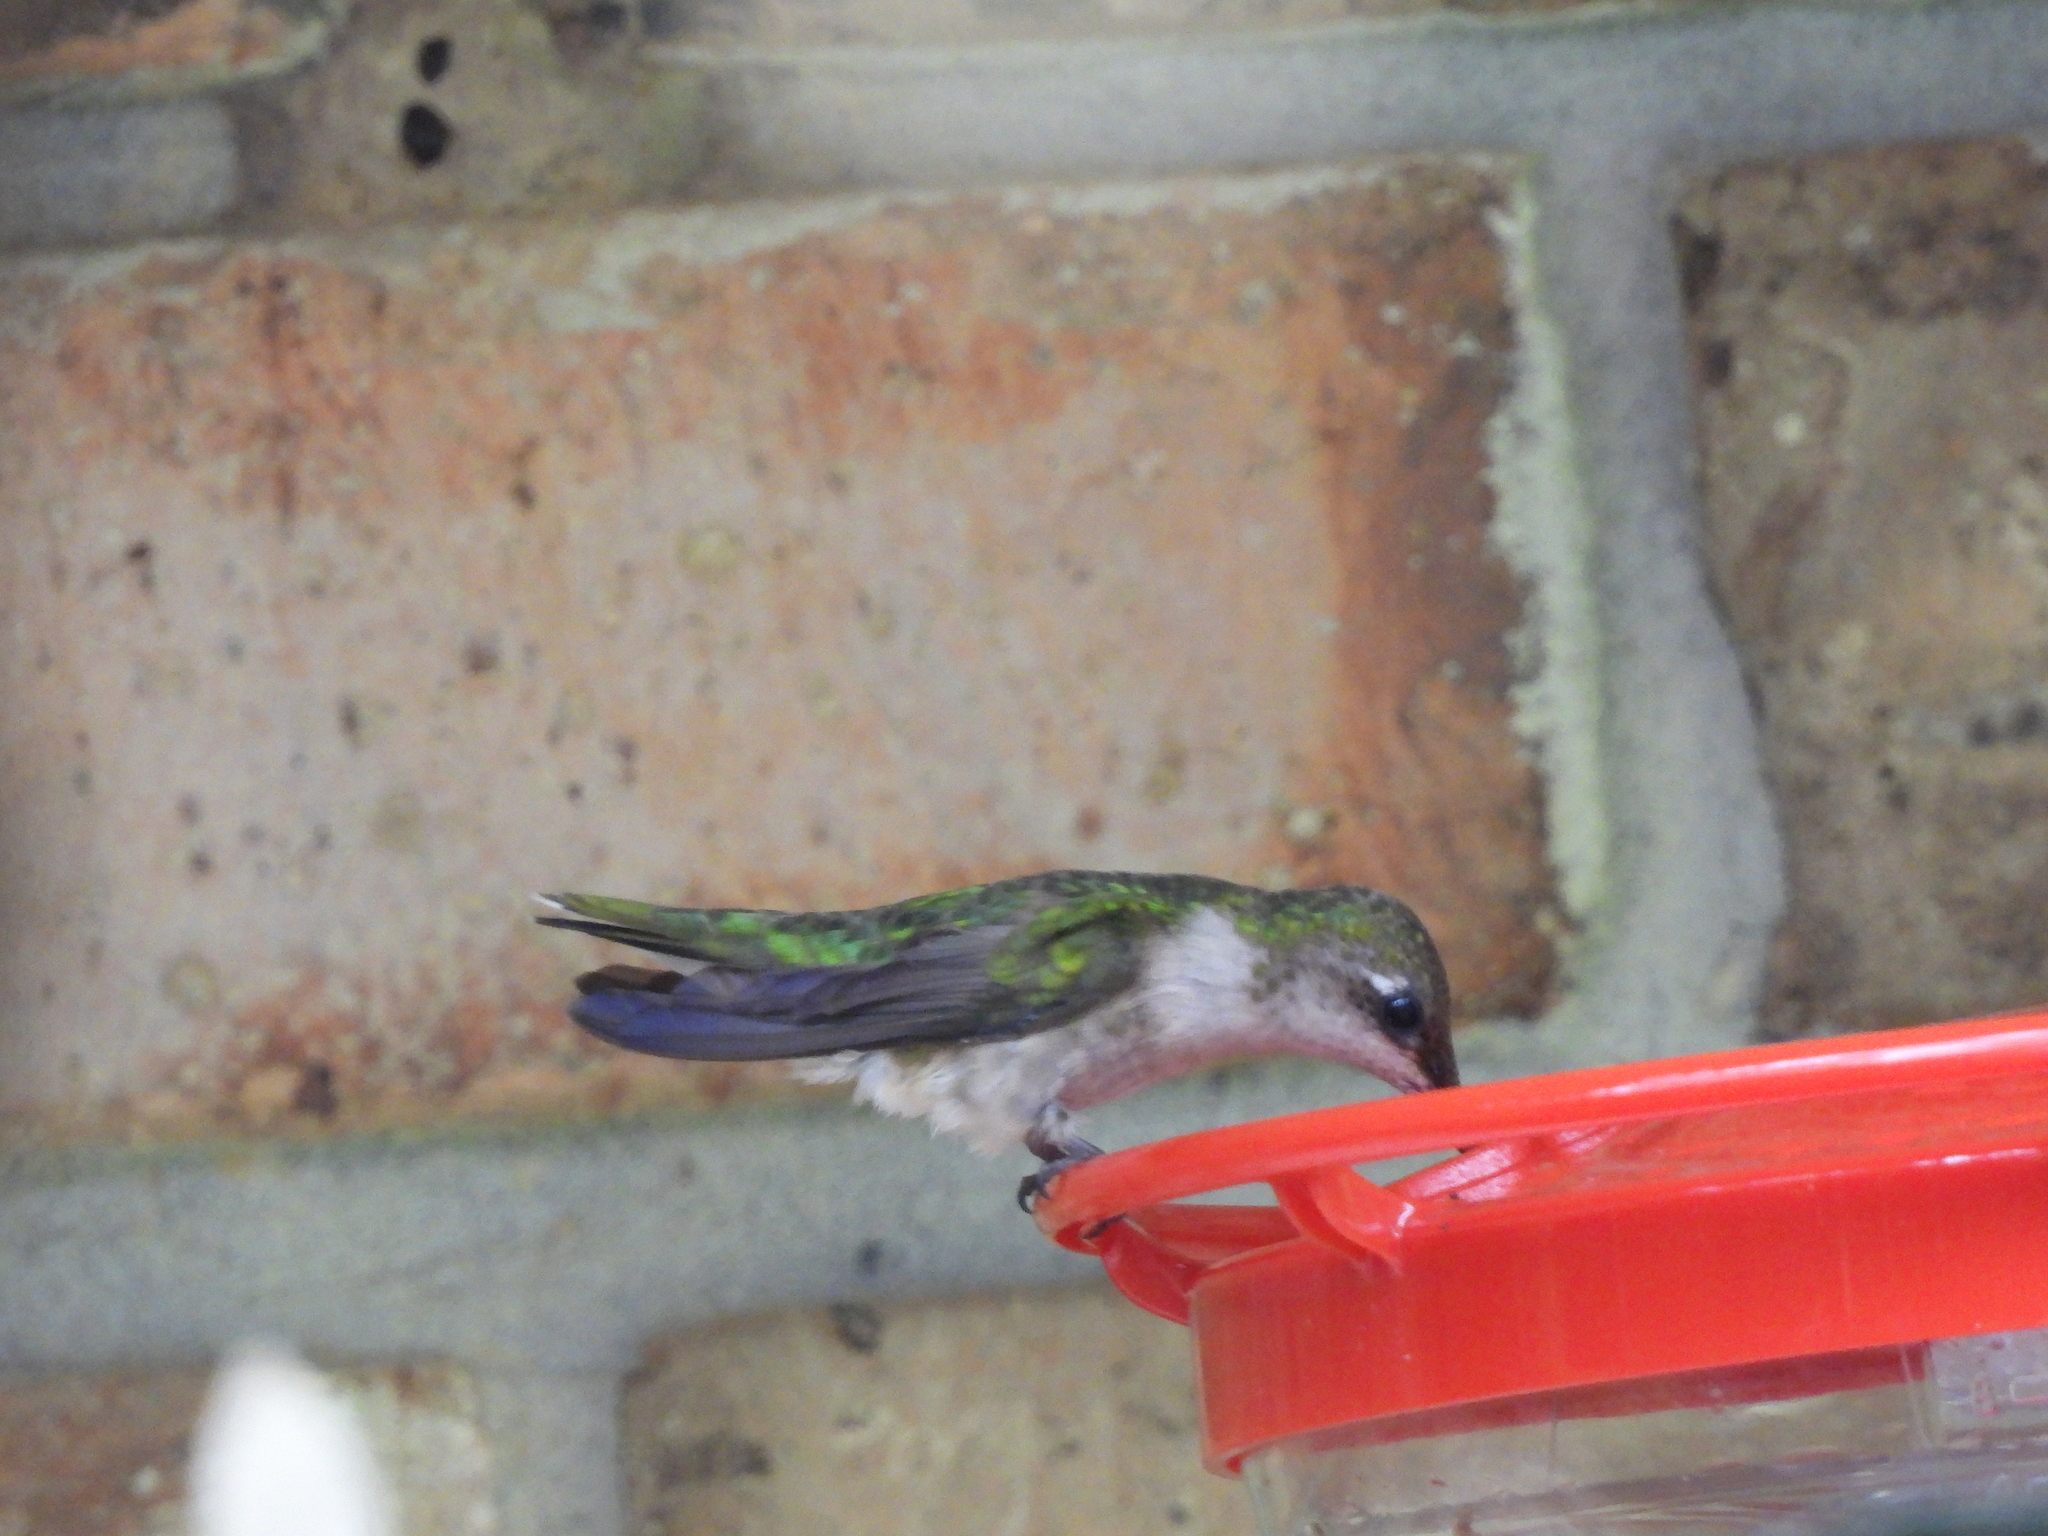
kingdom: Animalia
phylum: Chordata
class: Aves
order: Apodiformes
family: Trochilidae
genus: Archilochus
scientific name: Archilochus colubris
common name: Ruby-throated hummingbird
